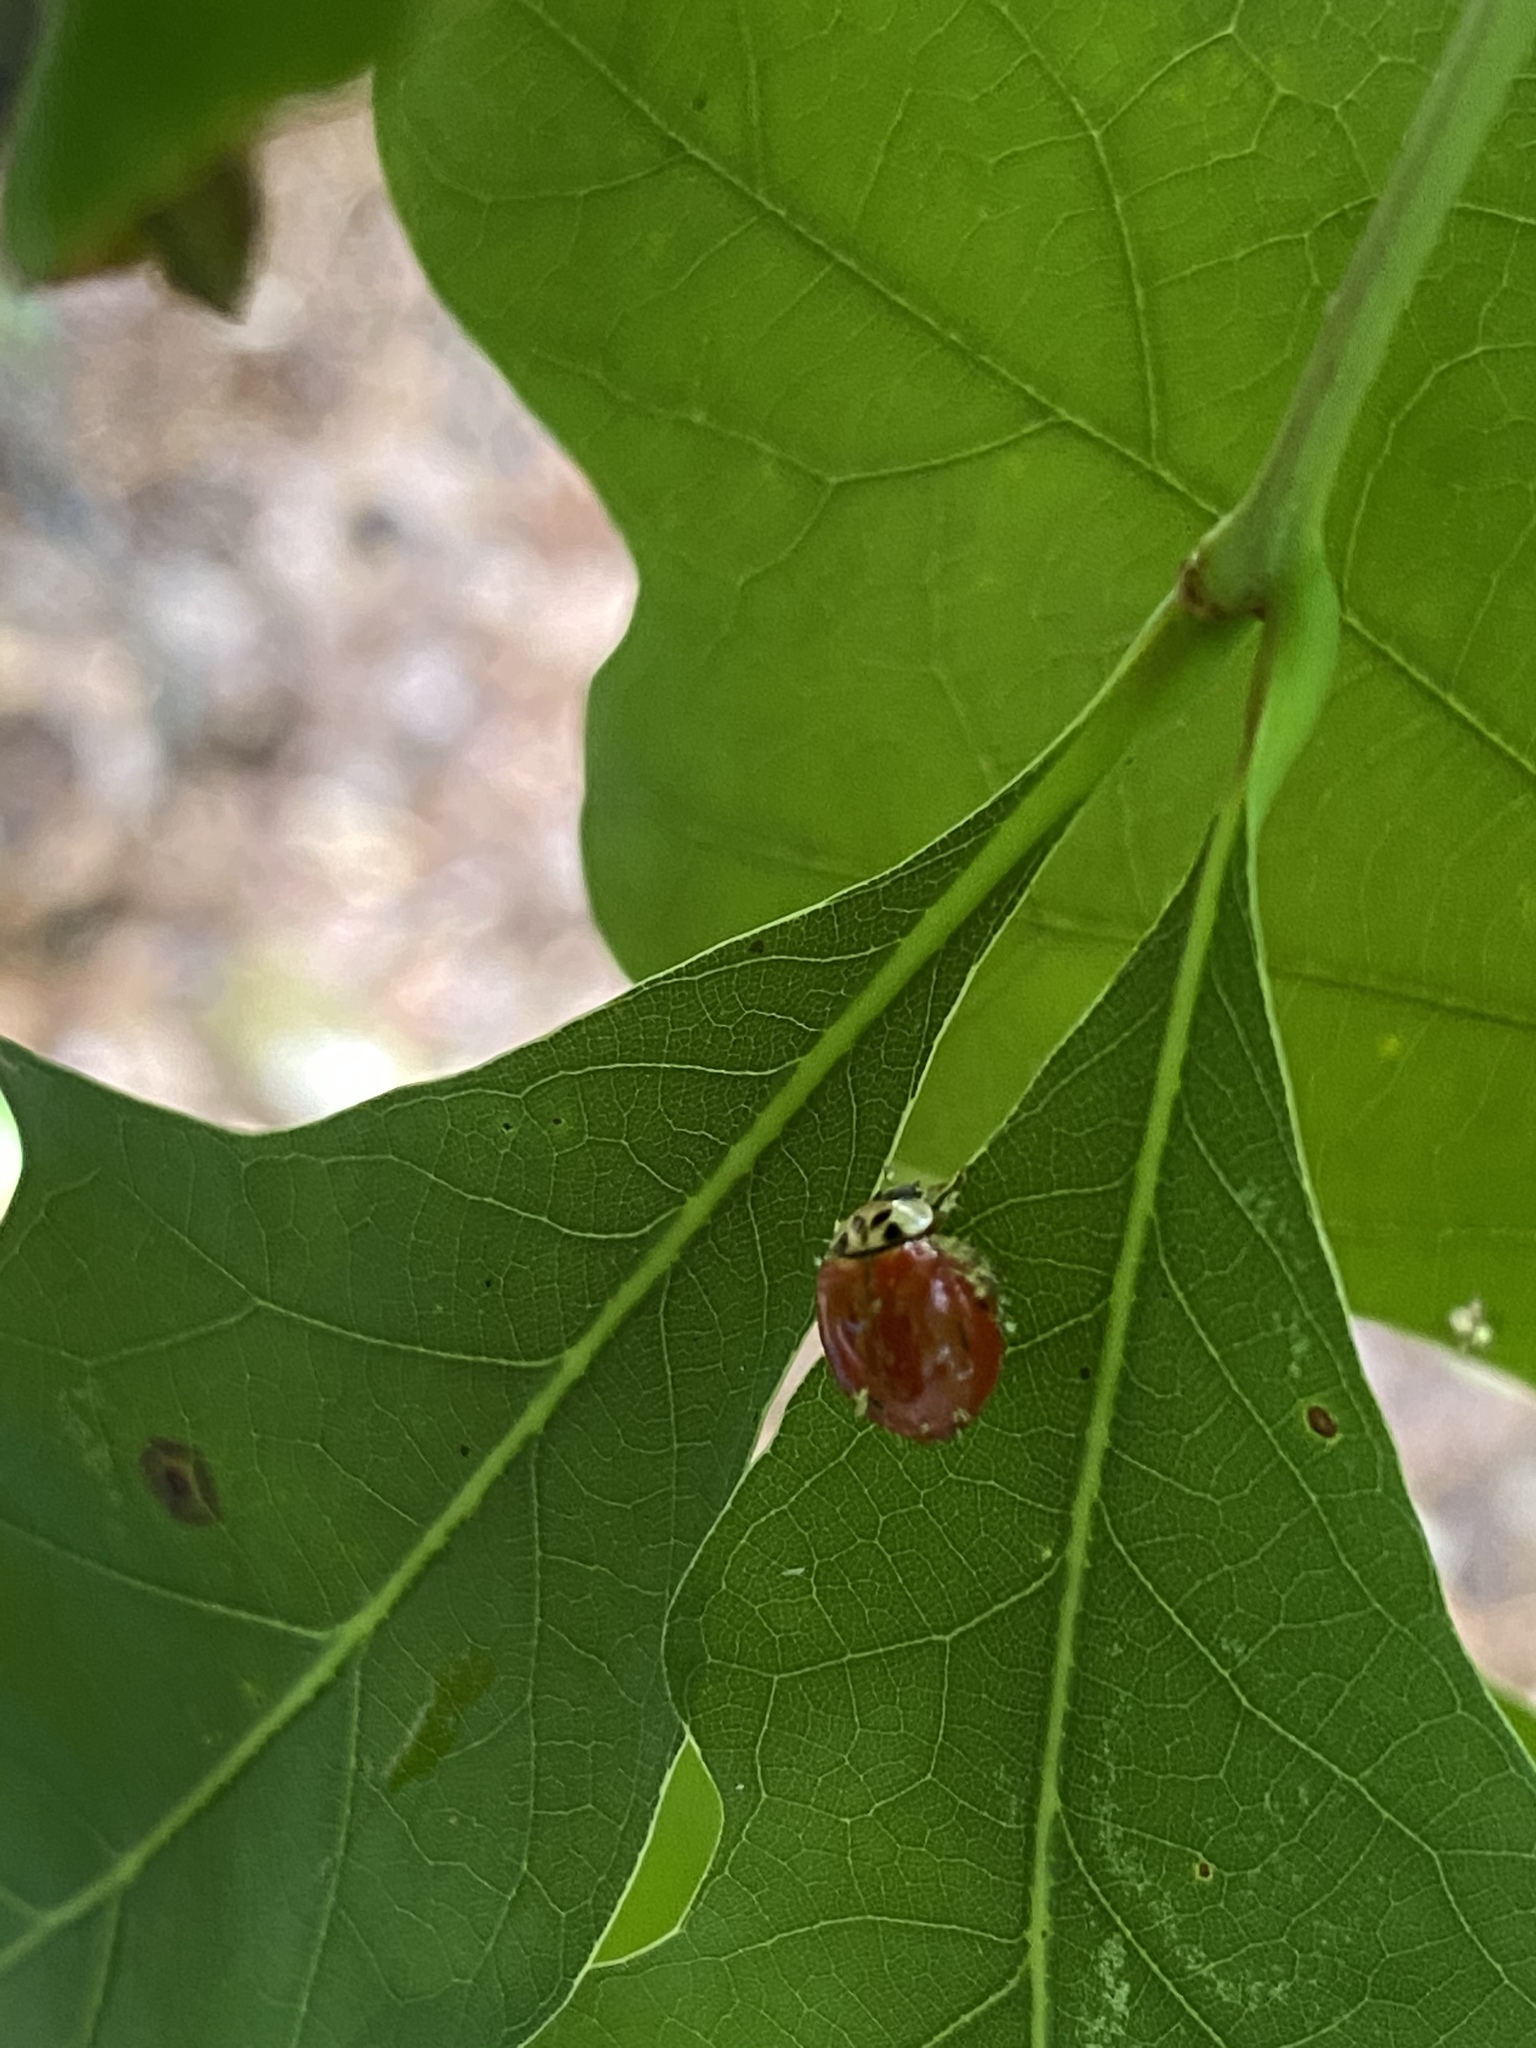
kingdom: Animalia
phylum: Arthropoda
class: Insecta
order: Coleoptera
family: Coccinellidae
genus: Harmonia
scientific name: Harmonia axyridis
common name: Harlequin ladybird
